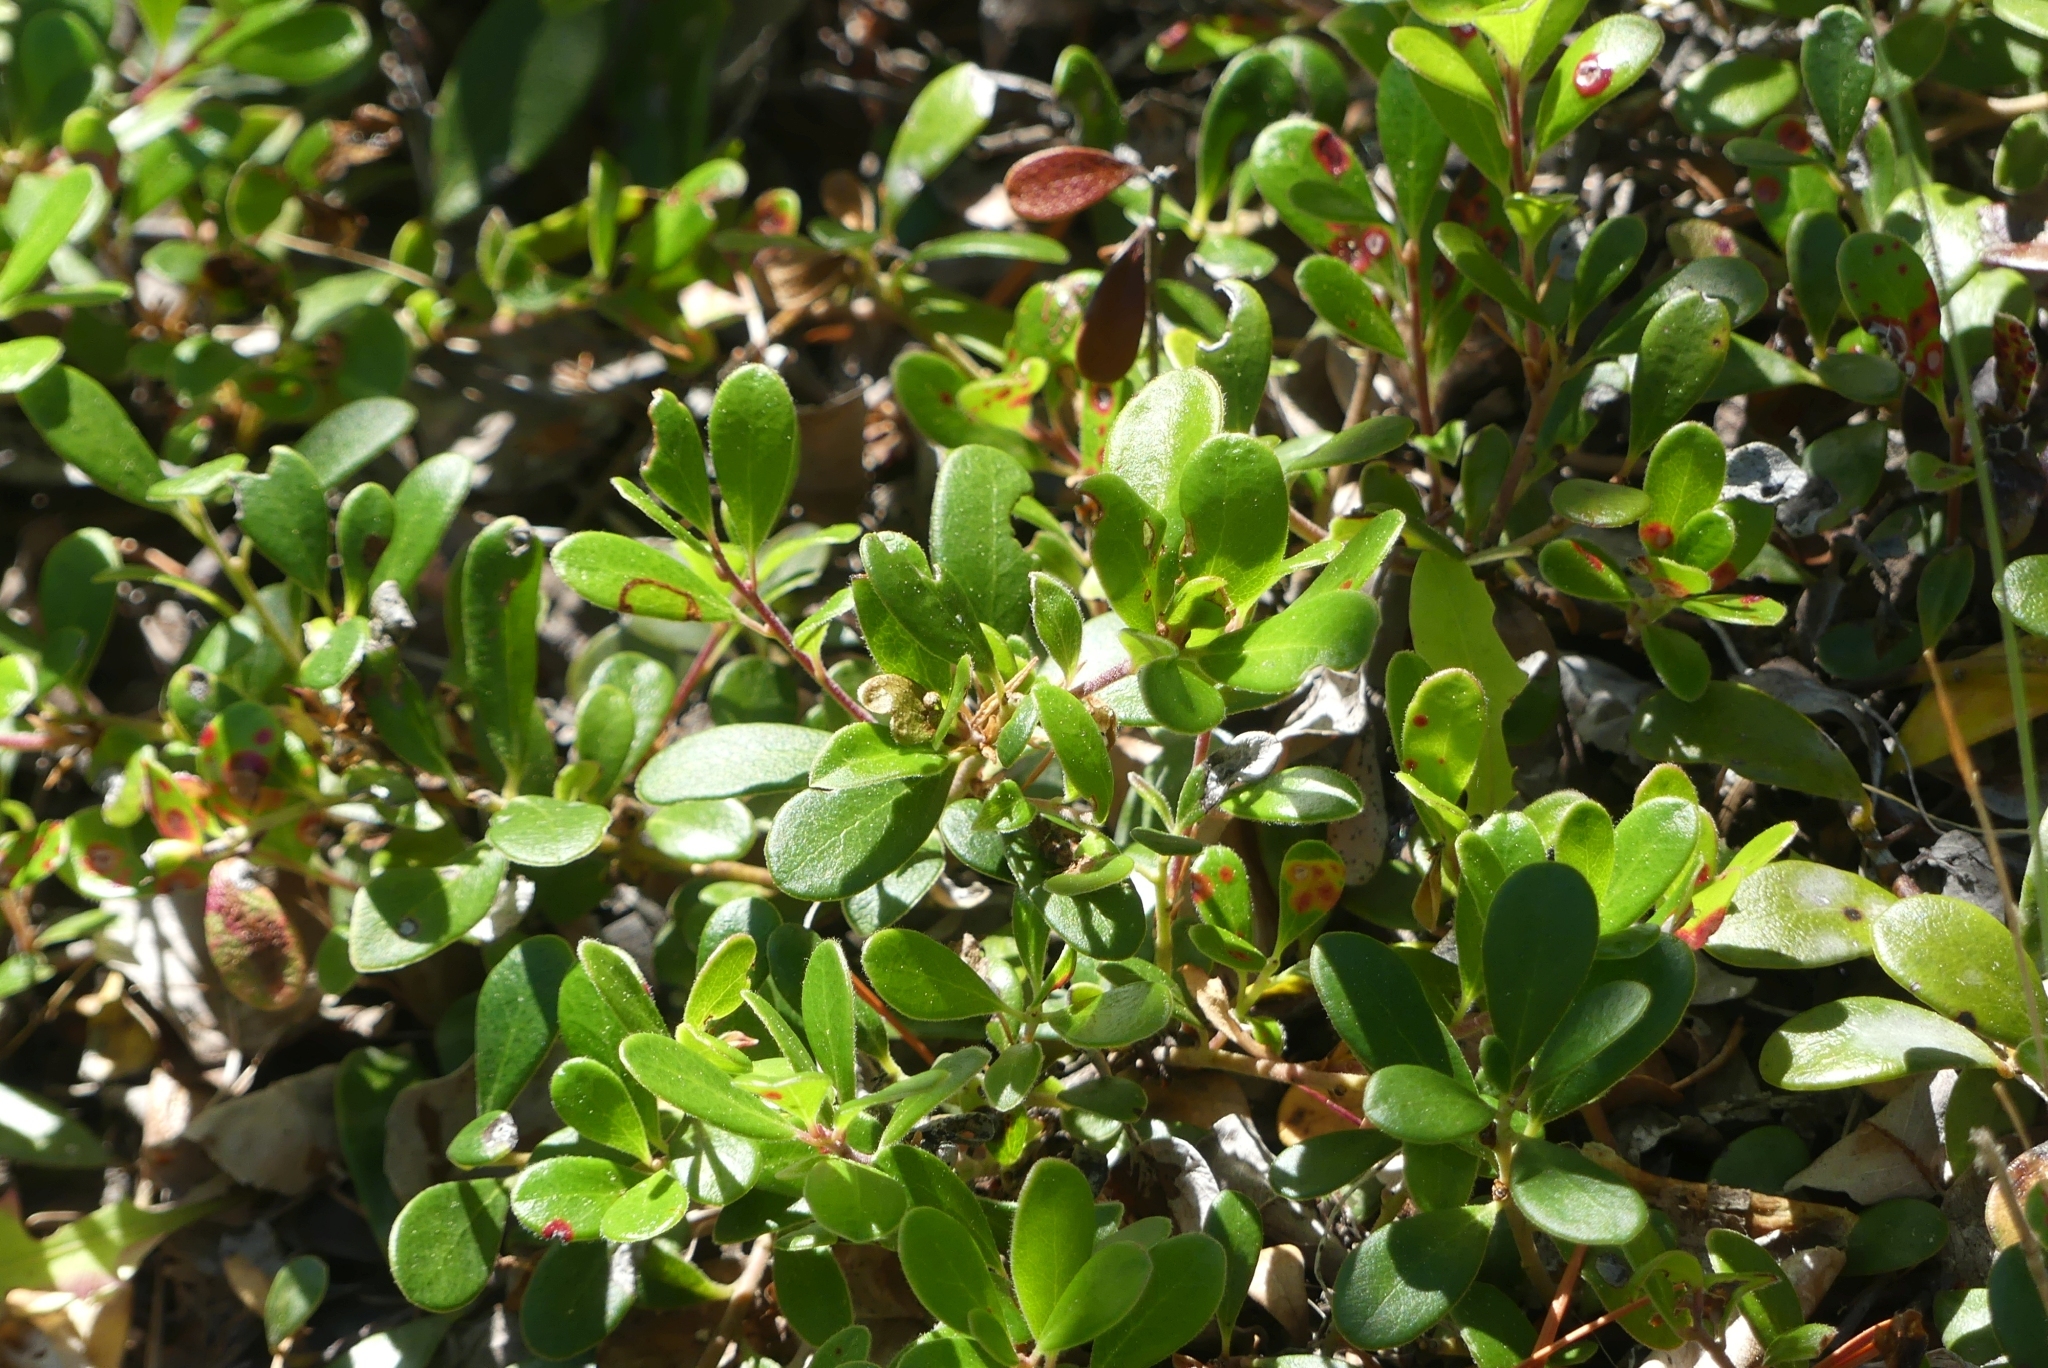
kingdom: Plantae
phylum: Tracheophyta
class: Magnoliopsida
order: Ericales
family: Ericaceae
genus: Arctostaphylos
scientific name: Arctostaphylos uva-ursi
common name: Bearberry
